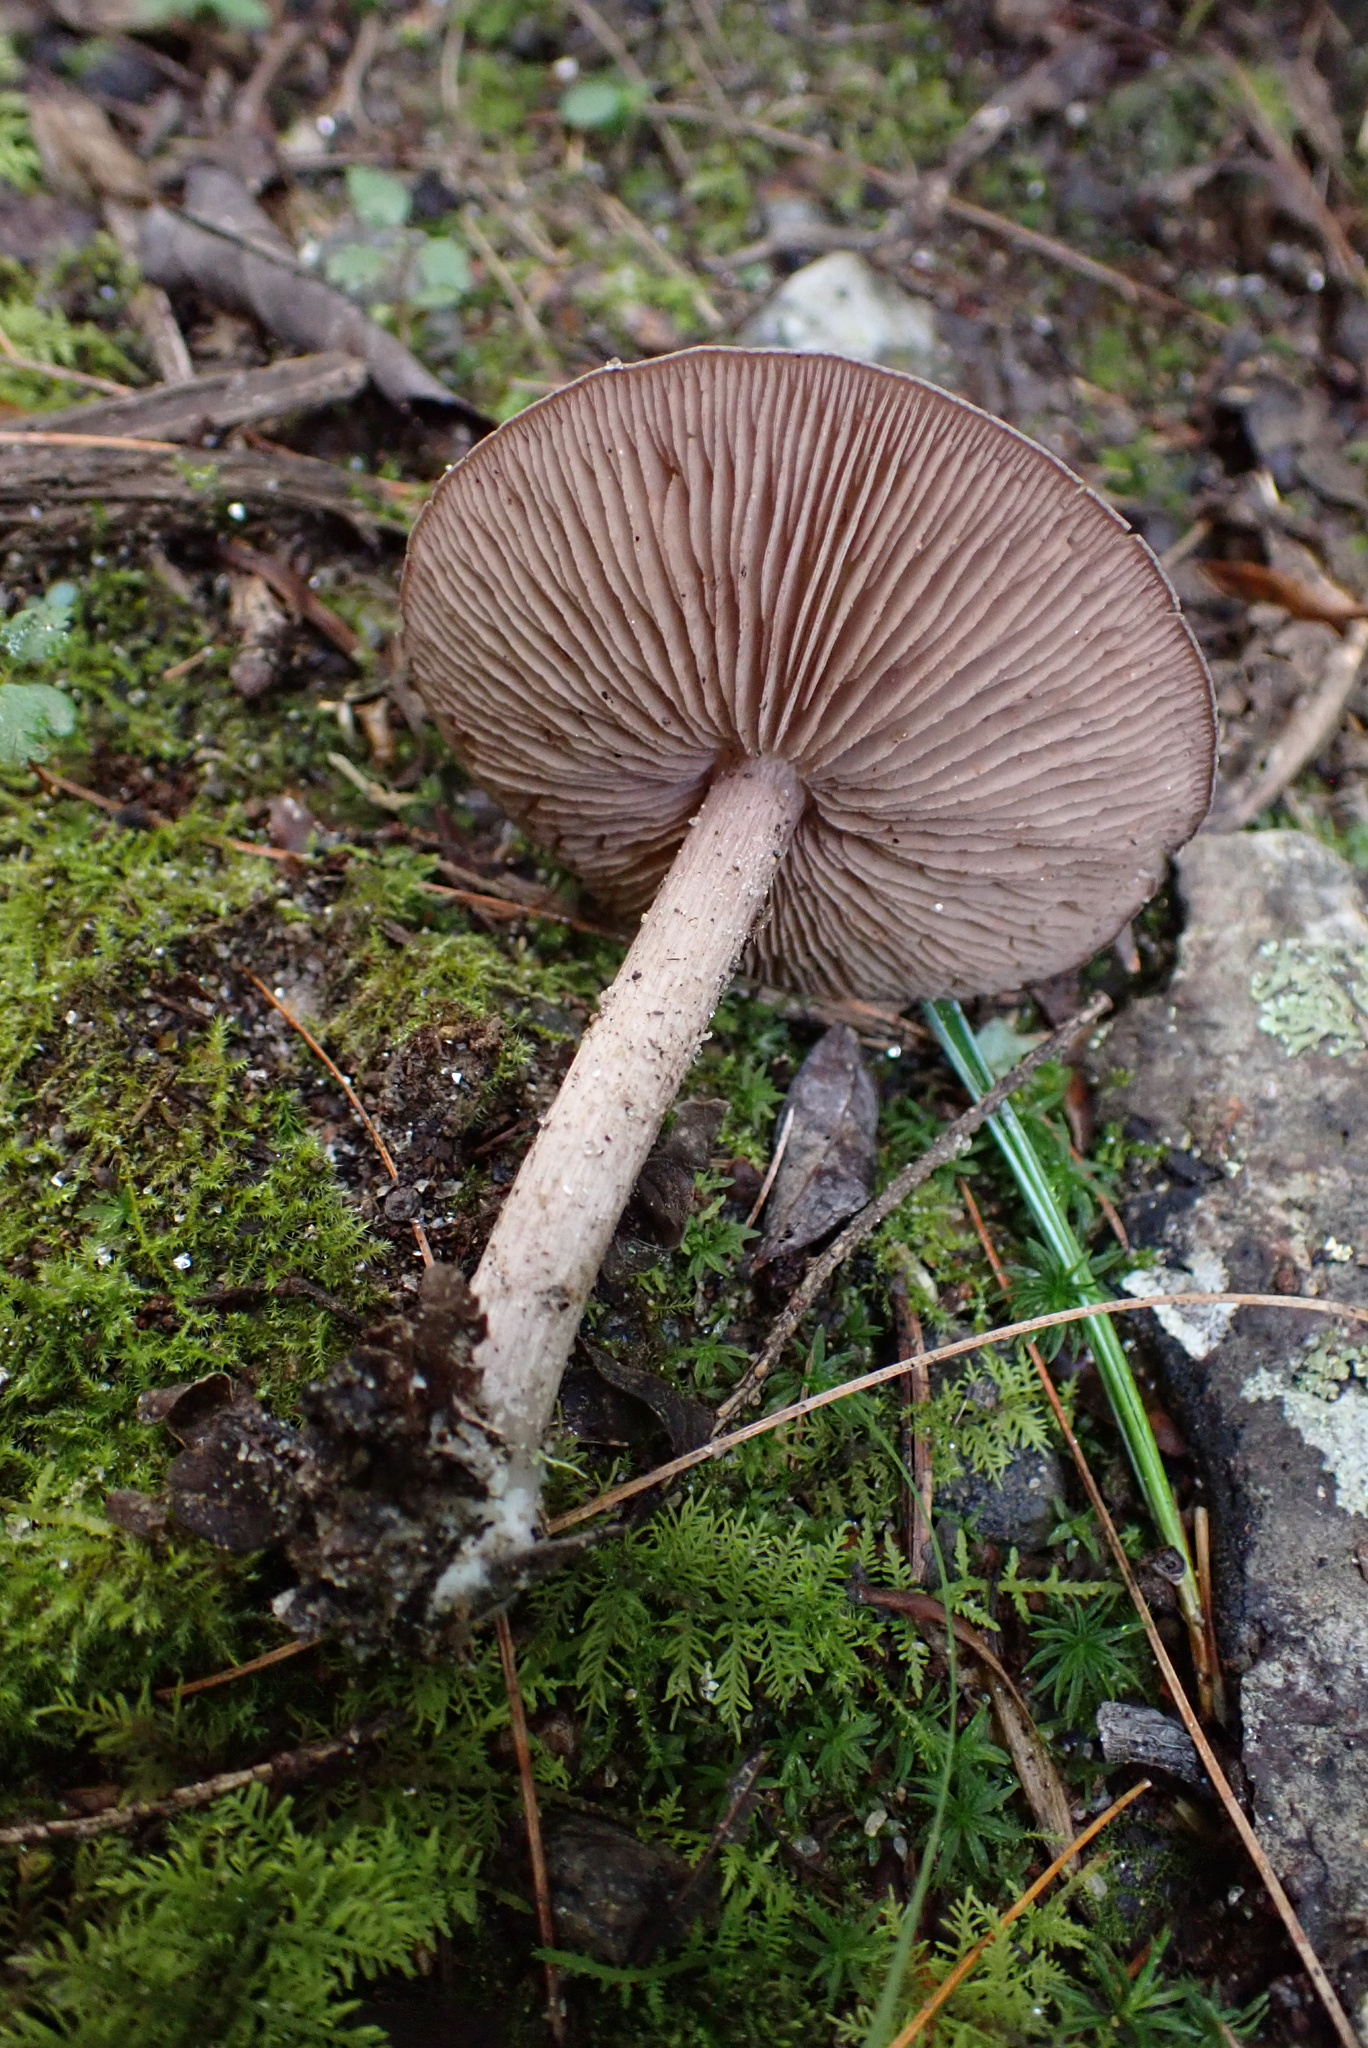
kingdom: Fungi
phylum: Basidiomycota
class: Agaricomycetes
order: Agaricales
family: Entolomataceae
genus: Entoloma
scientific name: Entoloma canadense
